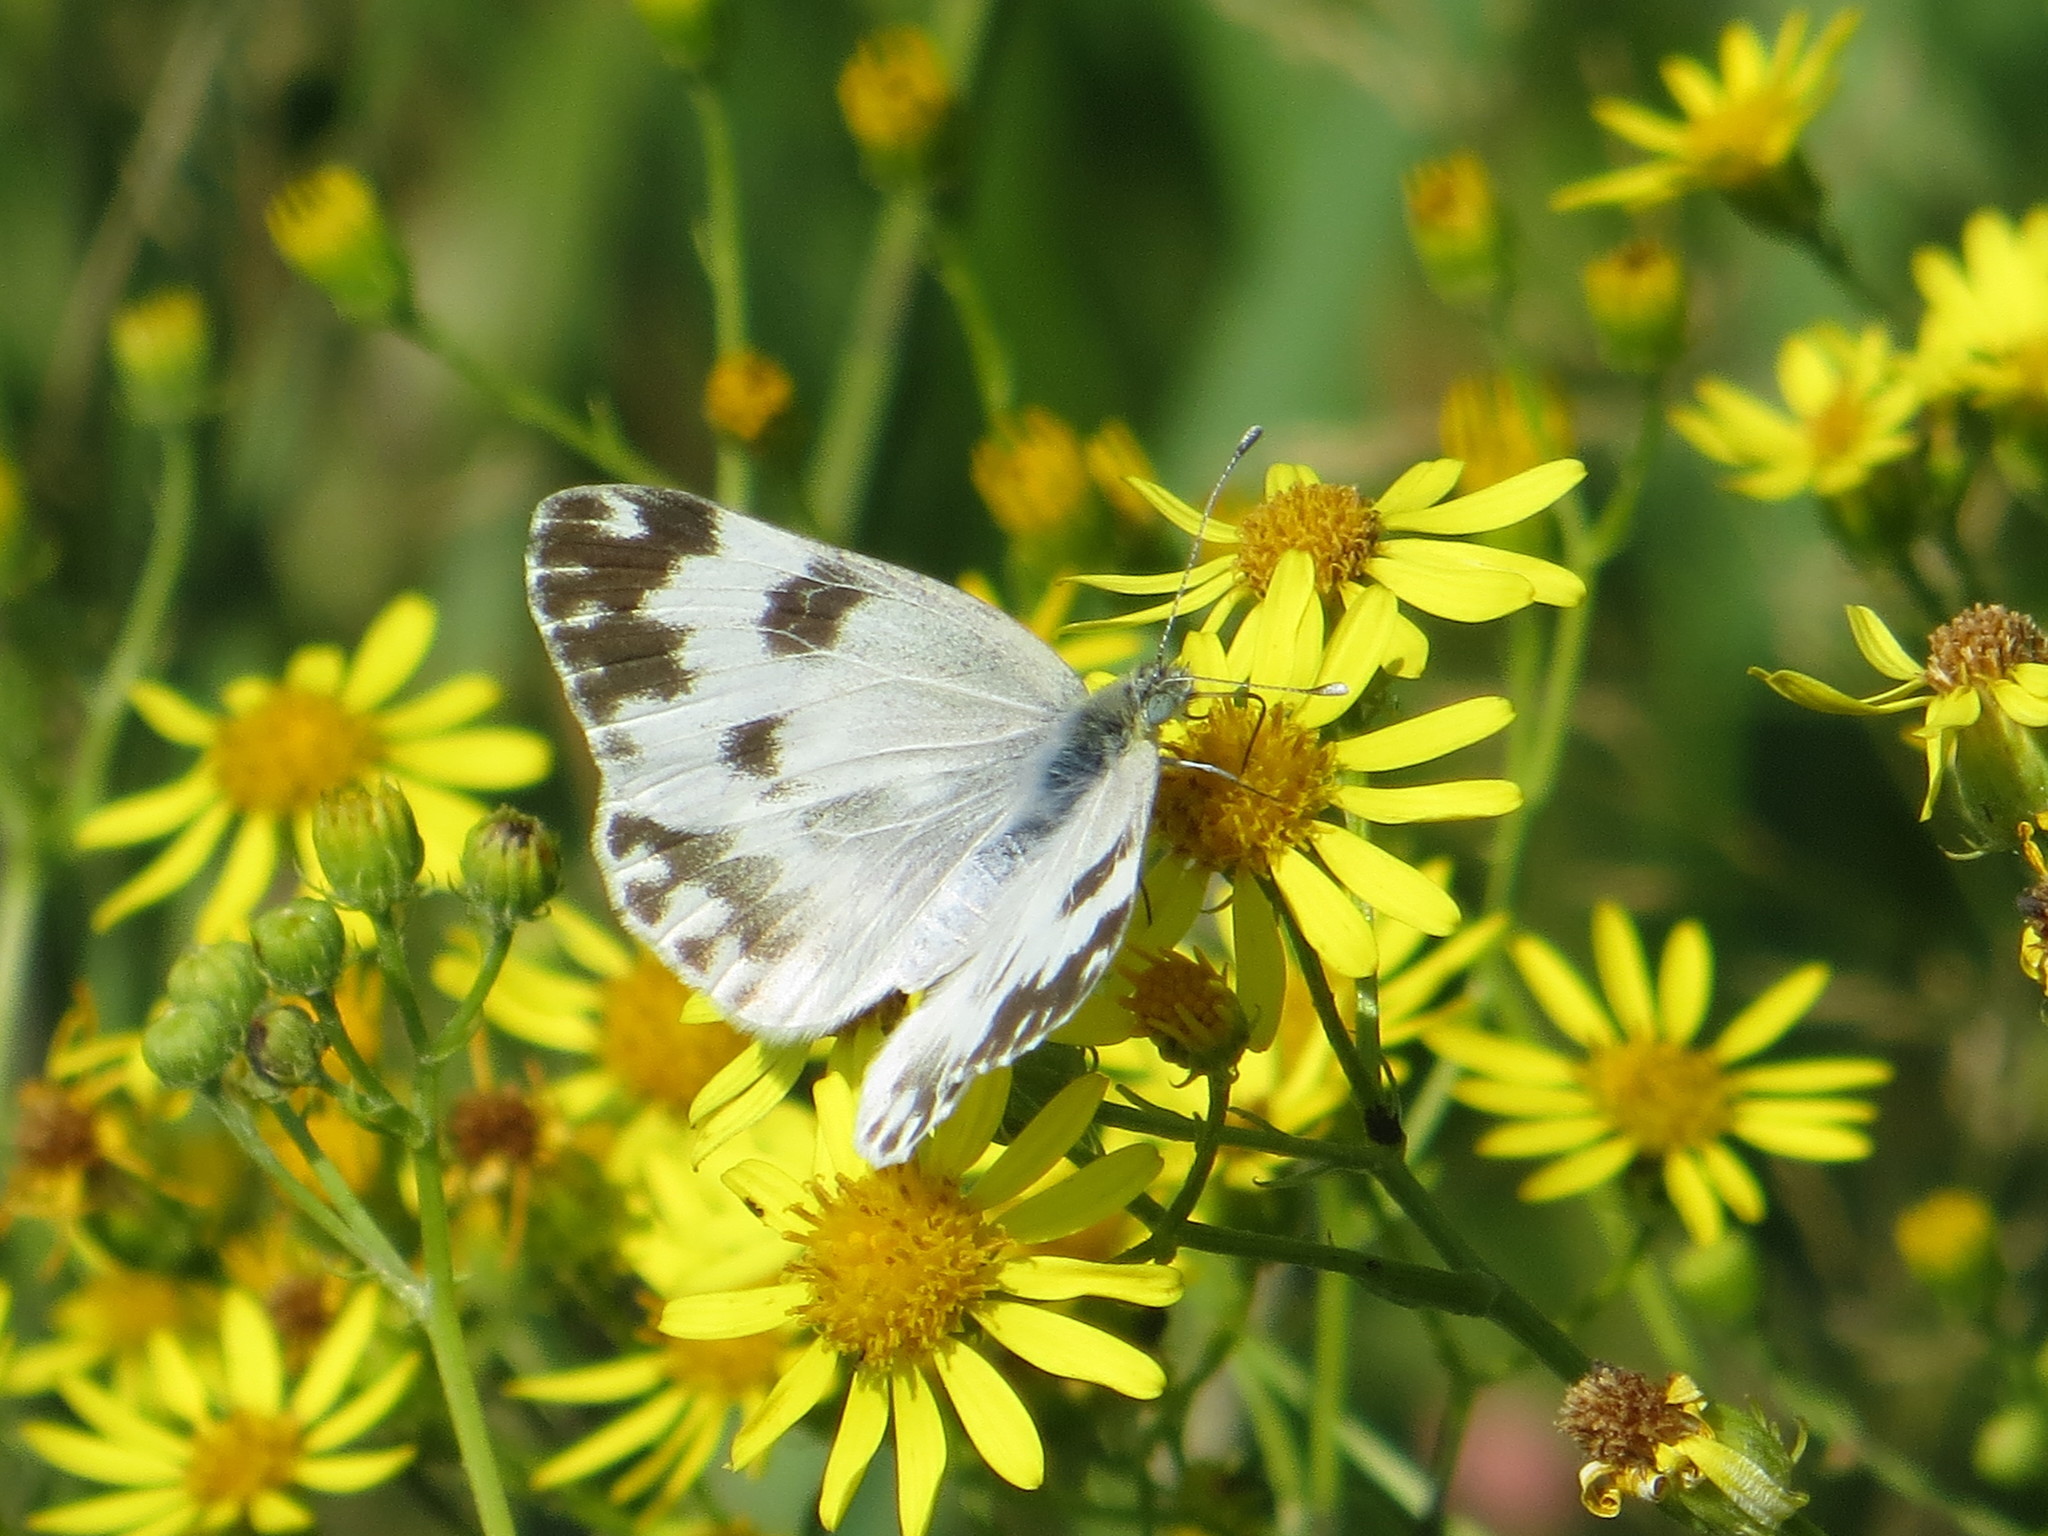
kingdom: Animalia
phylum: Arthropoda
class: Insecta
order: Lepidoptera
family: Pieridae
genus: Pontia
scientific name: Pontia edusa
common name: Eastern bath white
